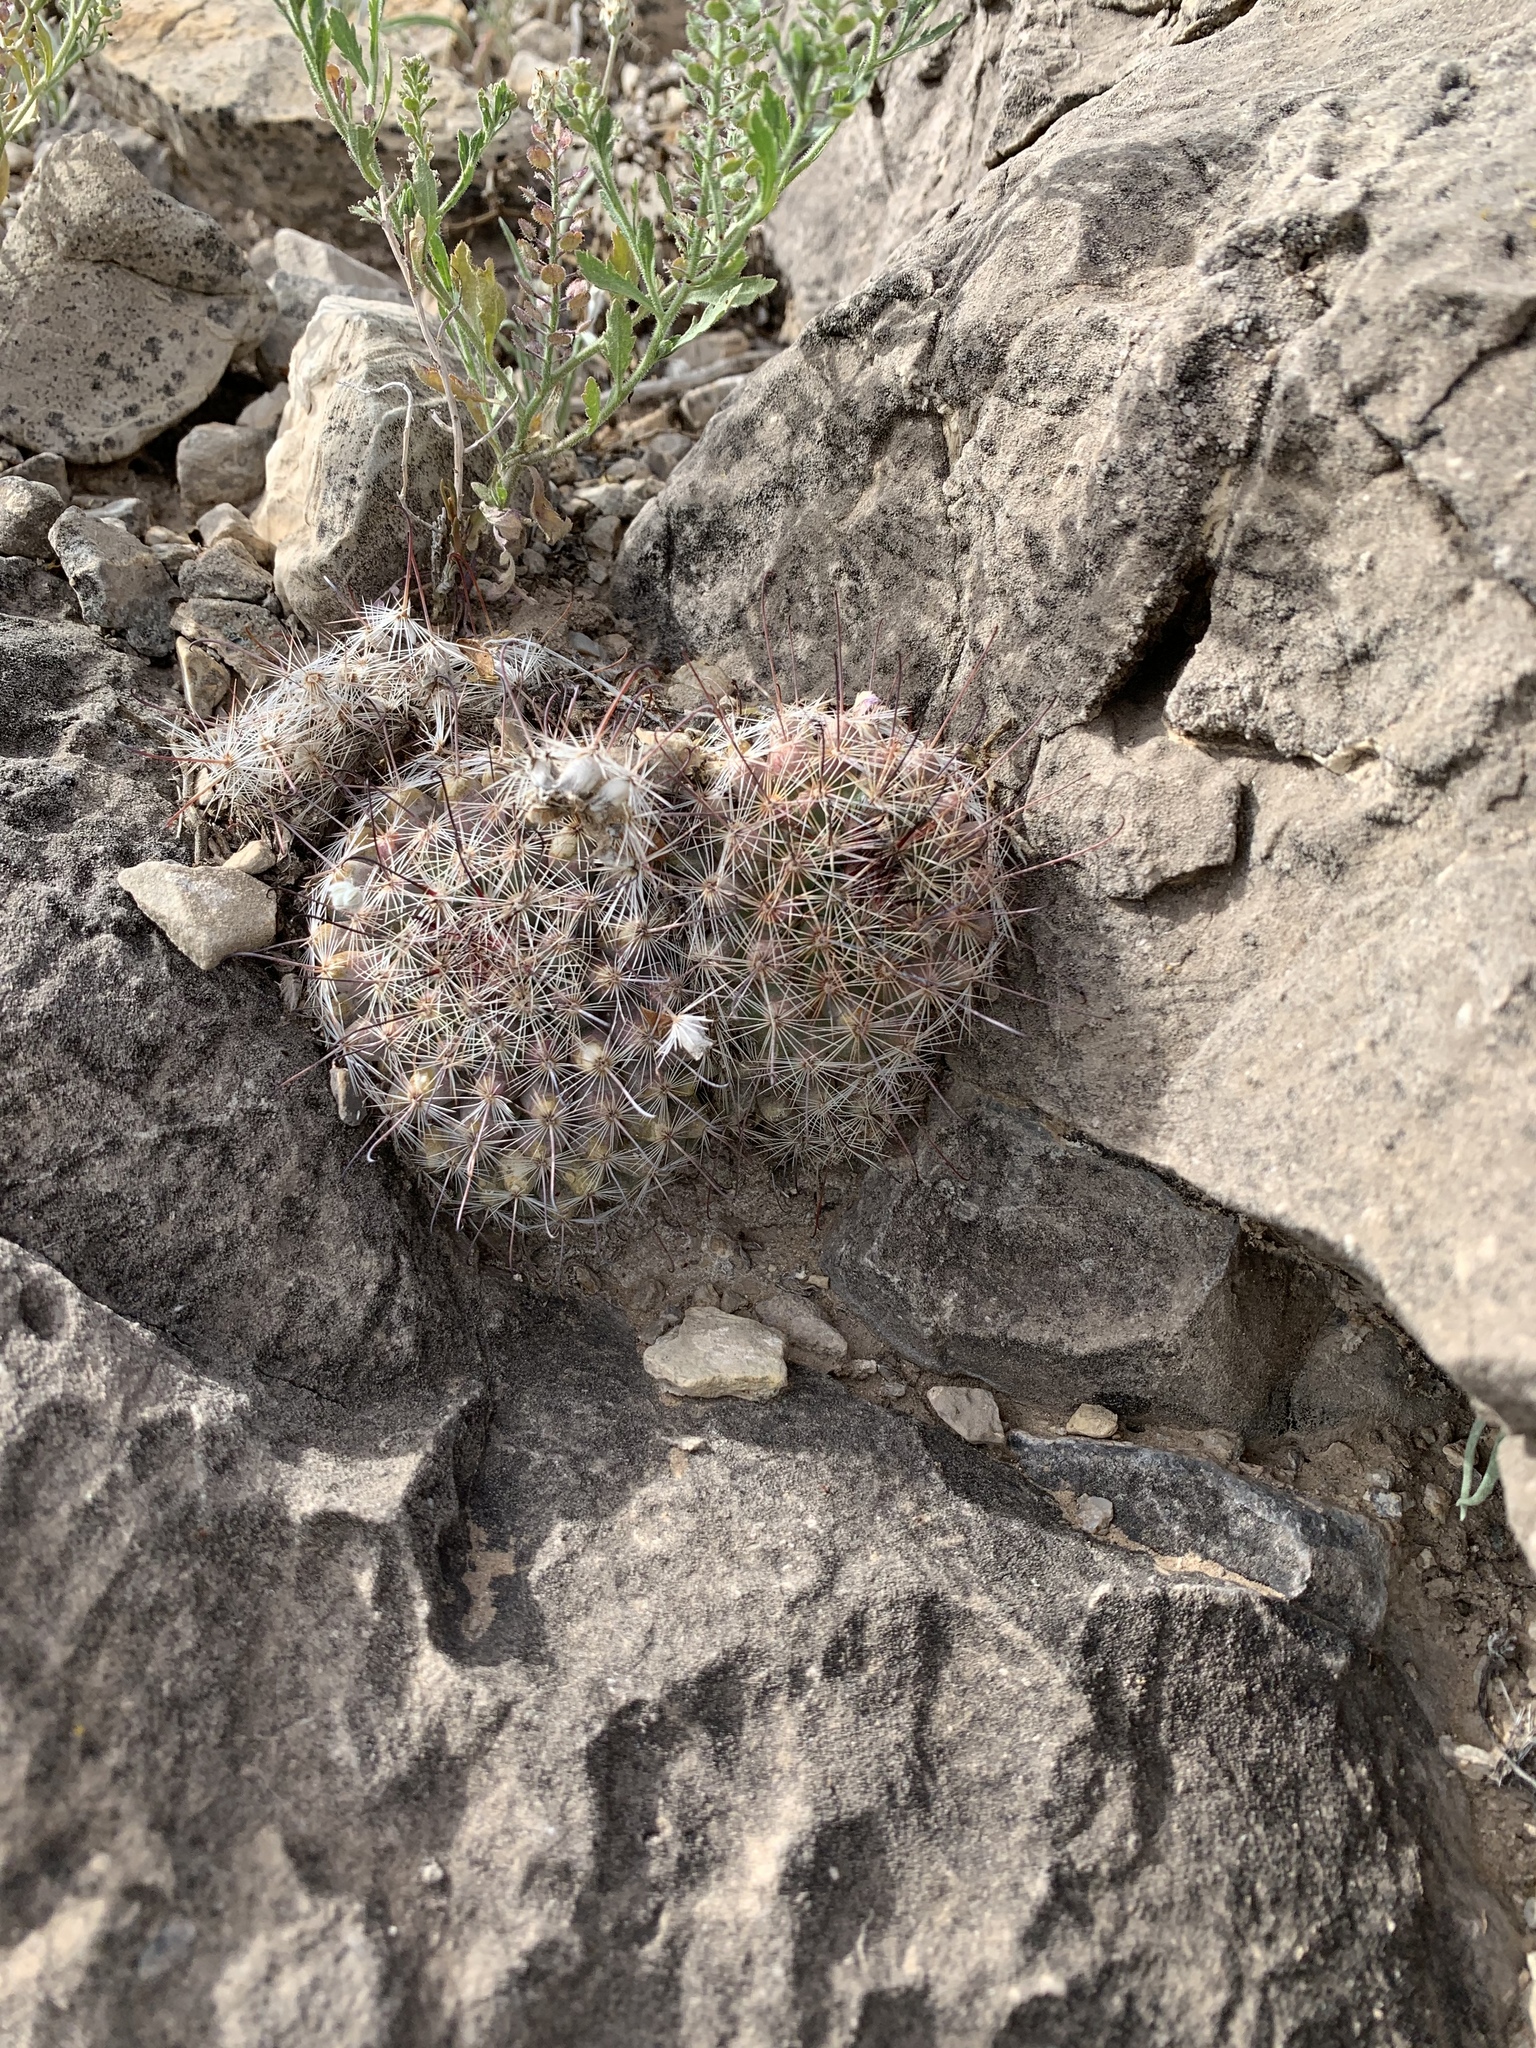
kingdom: Plantae
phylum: Tracheophyta
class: Magnoliopsida
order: Caryophyllales
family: Cactaceae
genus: Cochemiea
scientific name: Cochemiea grahamii
